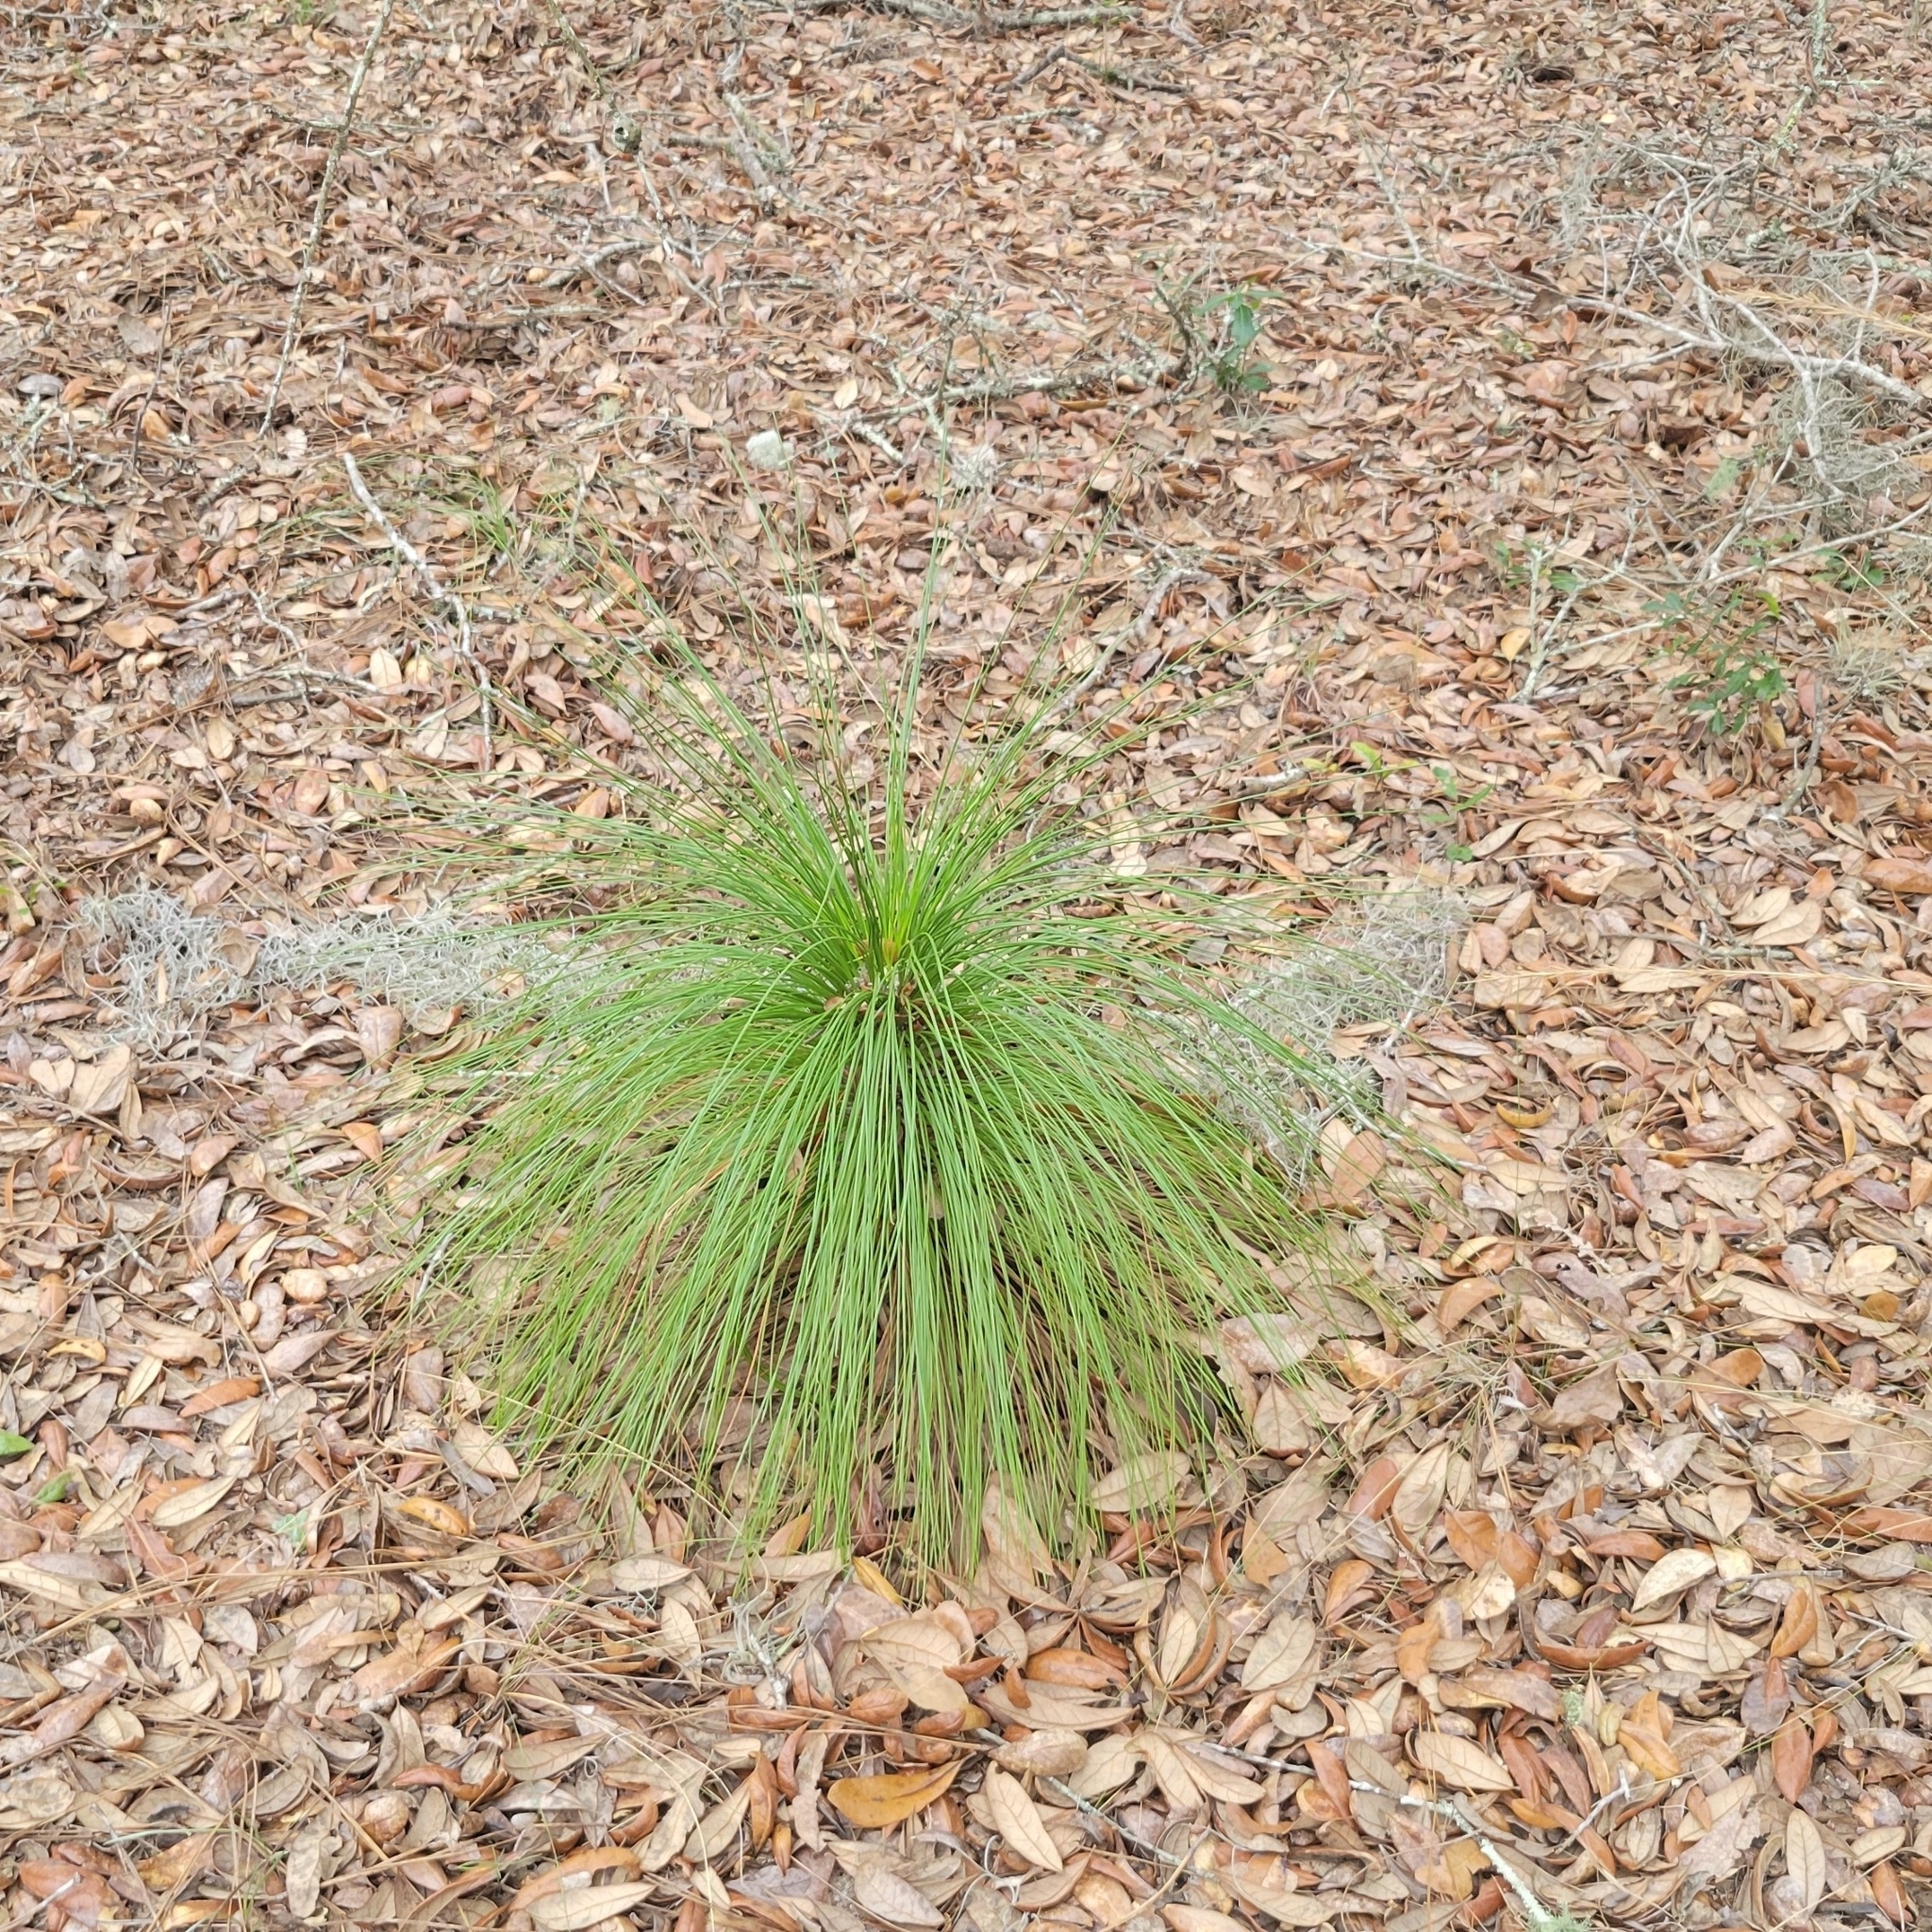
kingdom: Plantae
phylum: Tracheophyta
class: Pinopsida
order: Pinales
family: Pinaceae
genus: Pinus
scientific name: Pinus palustris
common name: Longleaf pine
